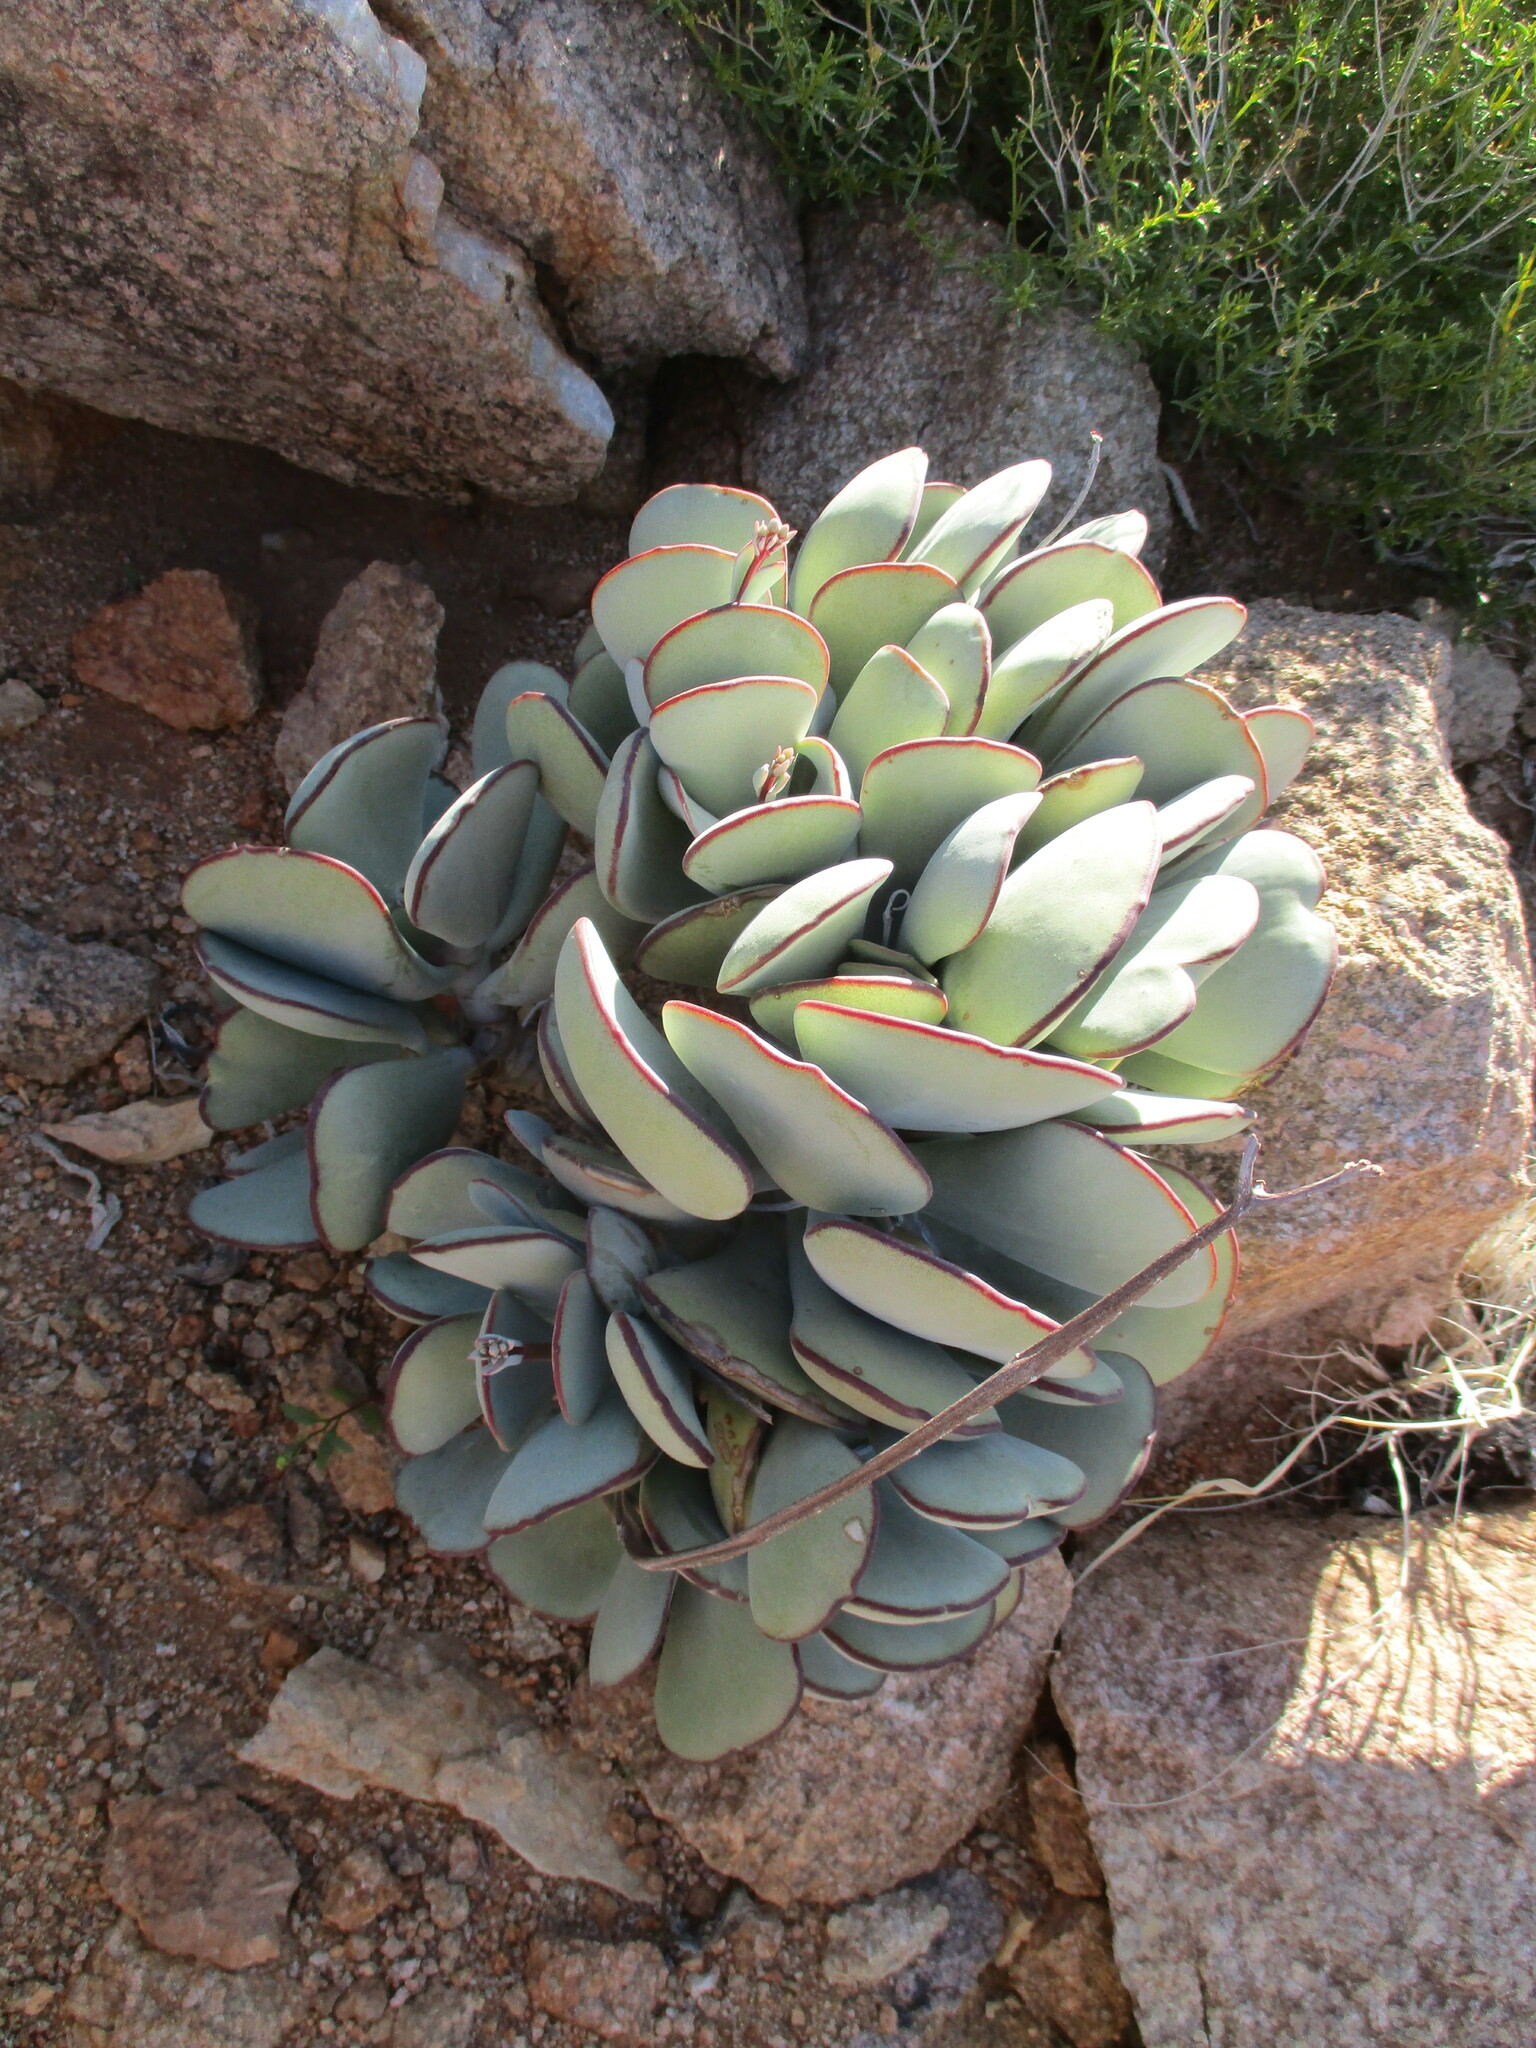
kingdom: Plantae
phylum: Tracheophyta
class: Magnoliopsida
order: Saxifragales
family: Crassulaceae
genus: Cotyledon
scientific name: Cotyledon orbiculata
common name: Pig's ear
